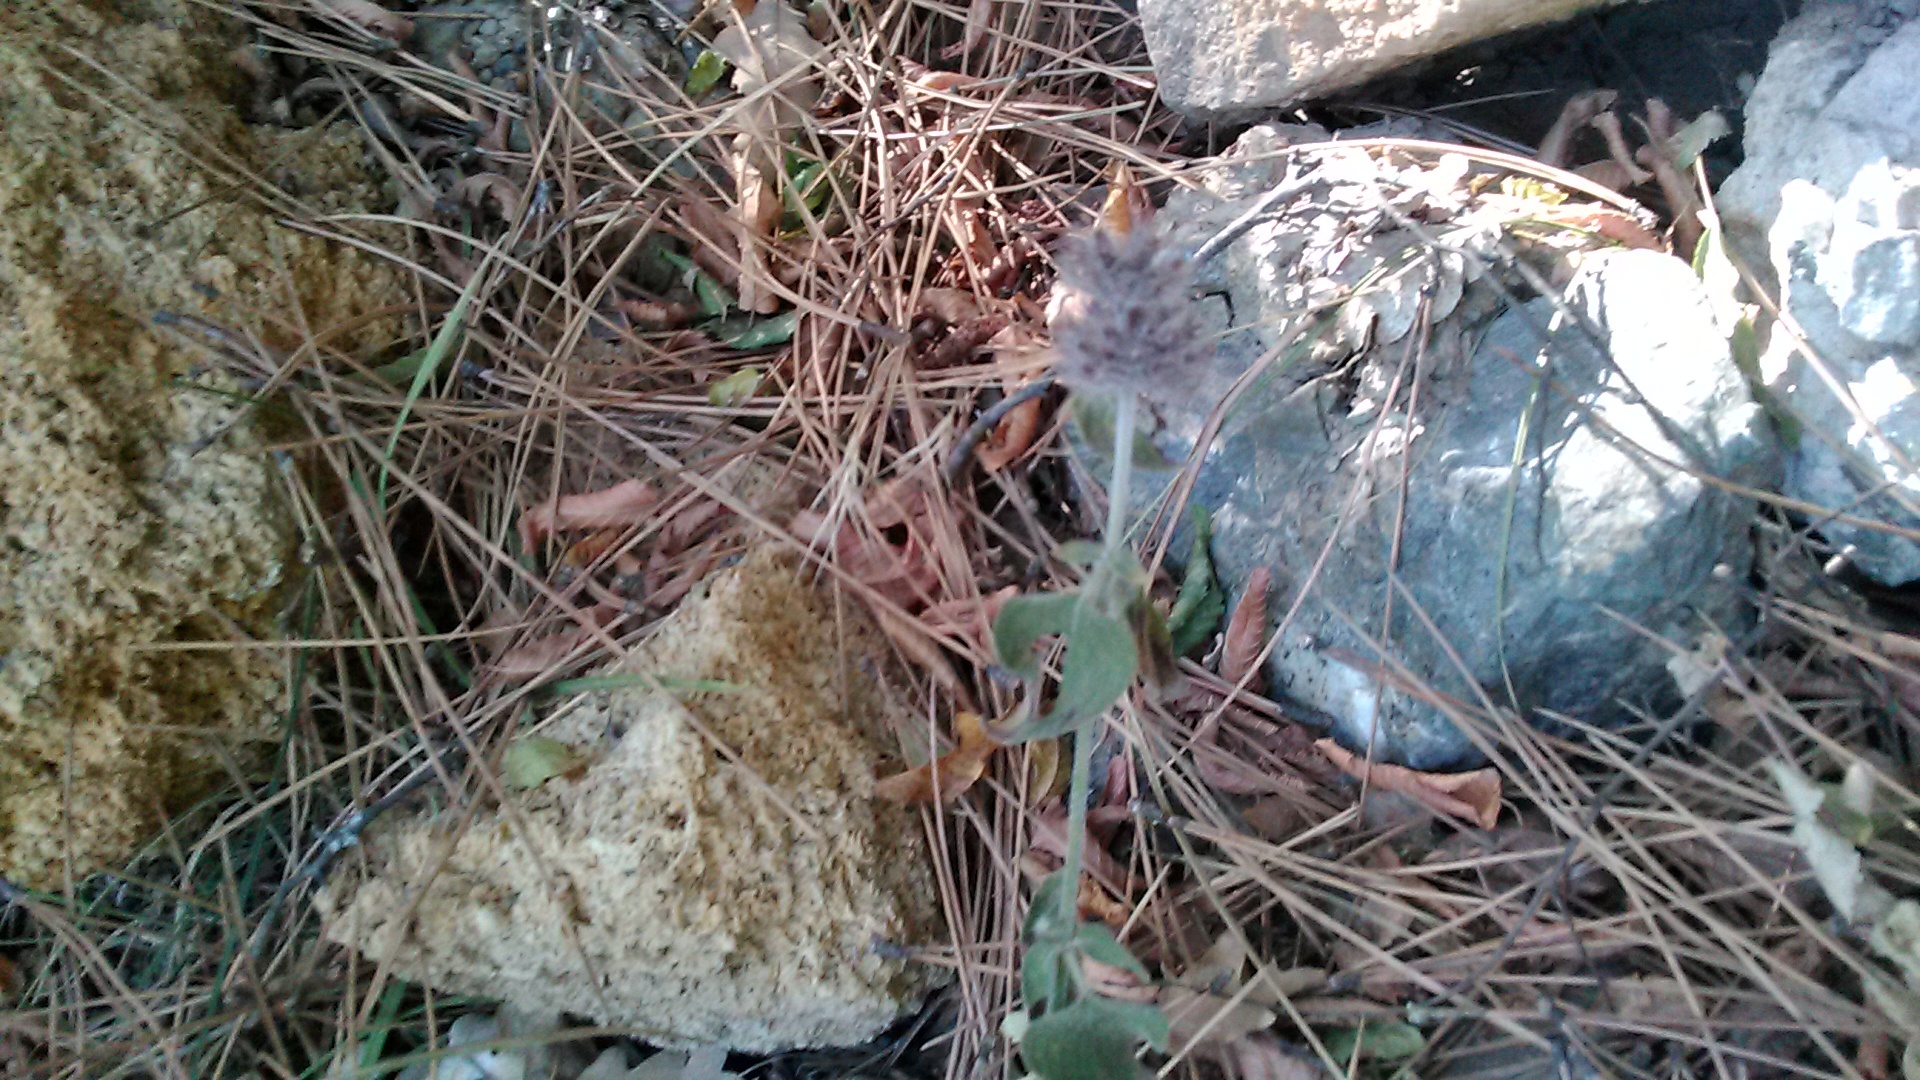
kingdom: Plantae
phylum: Tracheophyta
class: Magnoliopsida
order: Lamiales
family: Lamiaceae
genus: Clinopodium
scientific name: Clinopodium caucasicum
